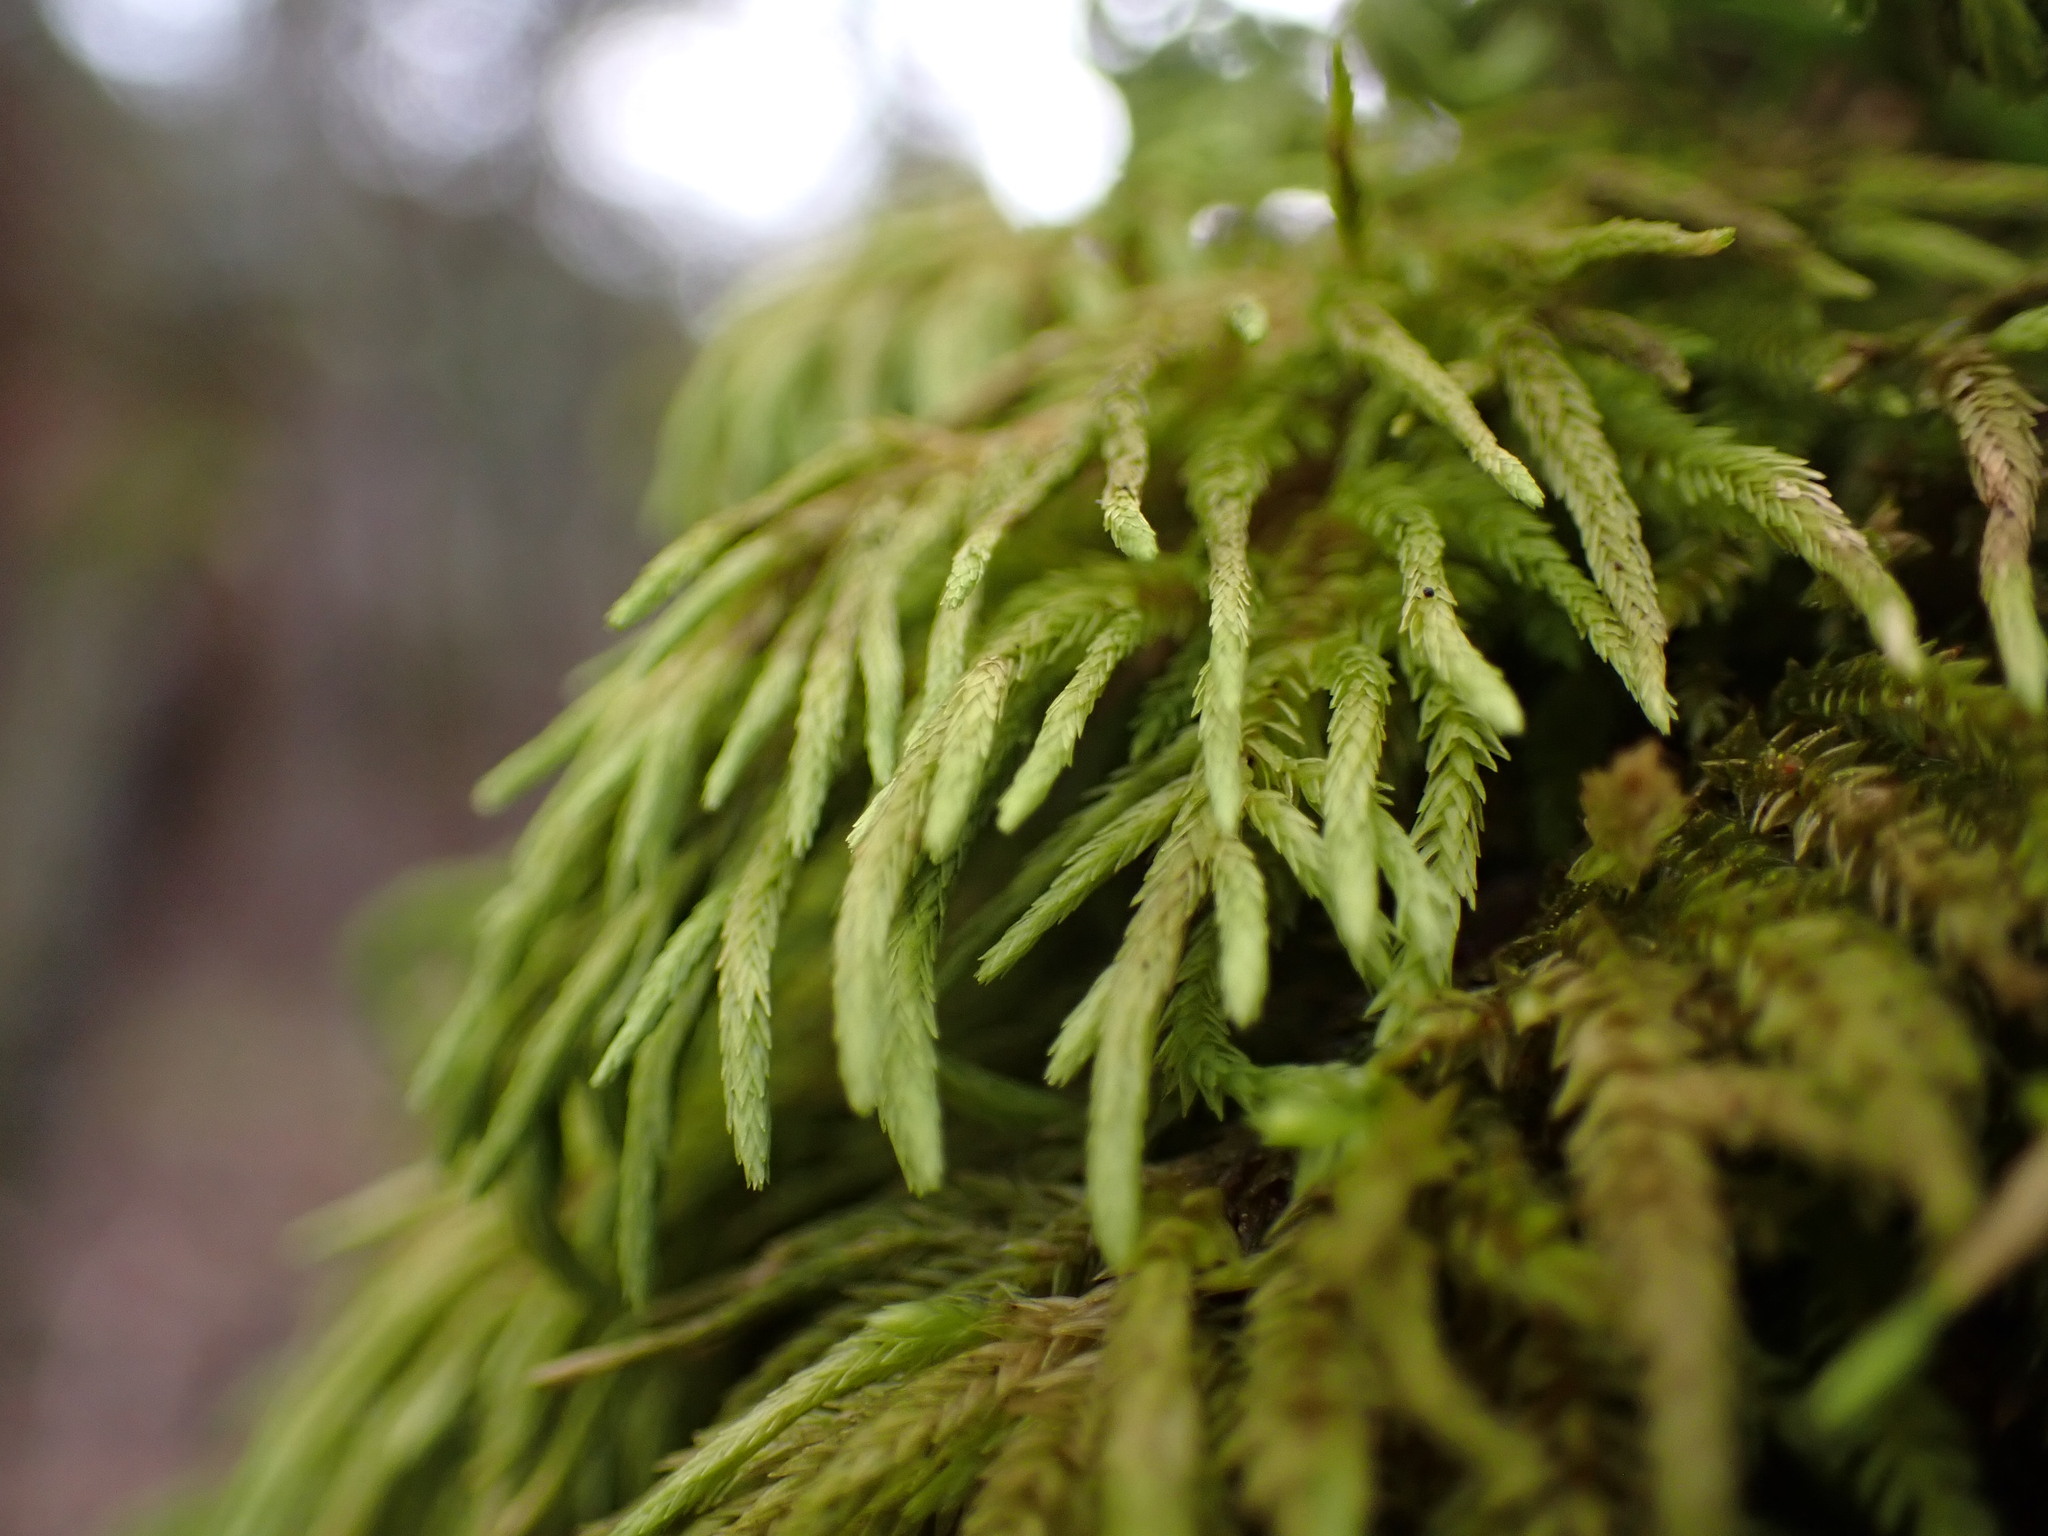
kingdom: Plantae
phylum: Bryophyta
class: Bryopsida
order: Hypnales
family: Cryphaeaceae
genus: Dendroalsia
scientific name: Dendroalsia abietina
